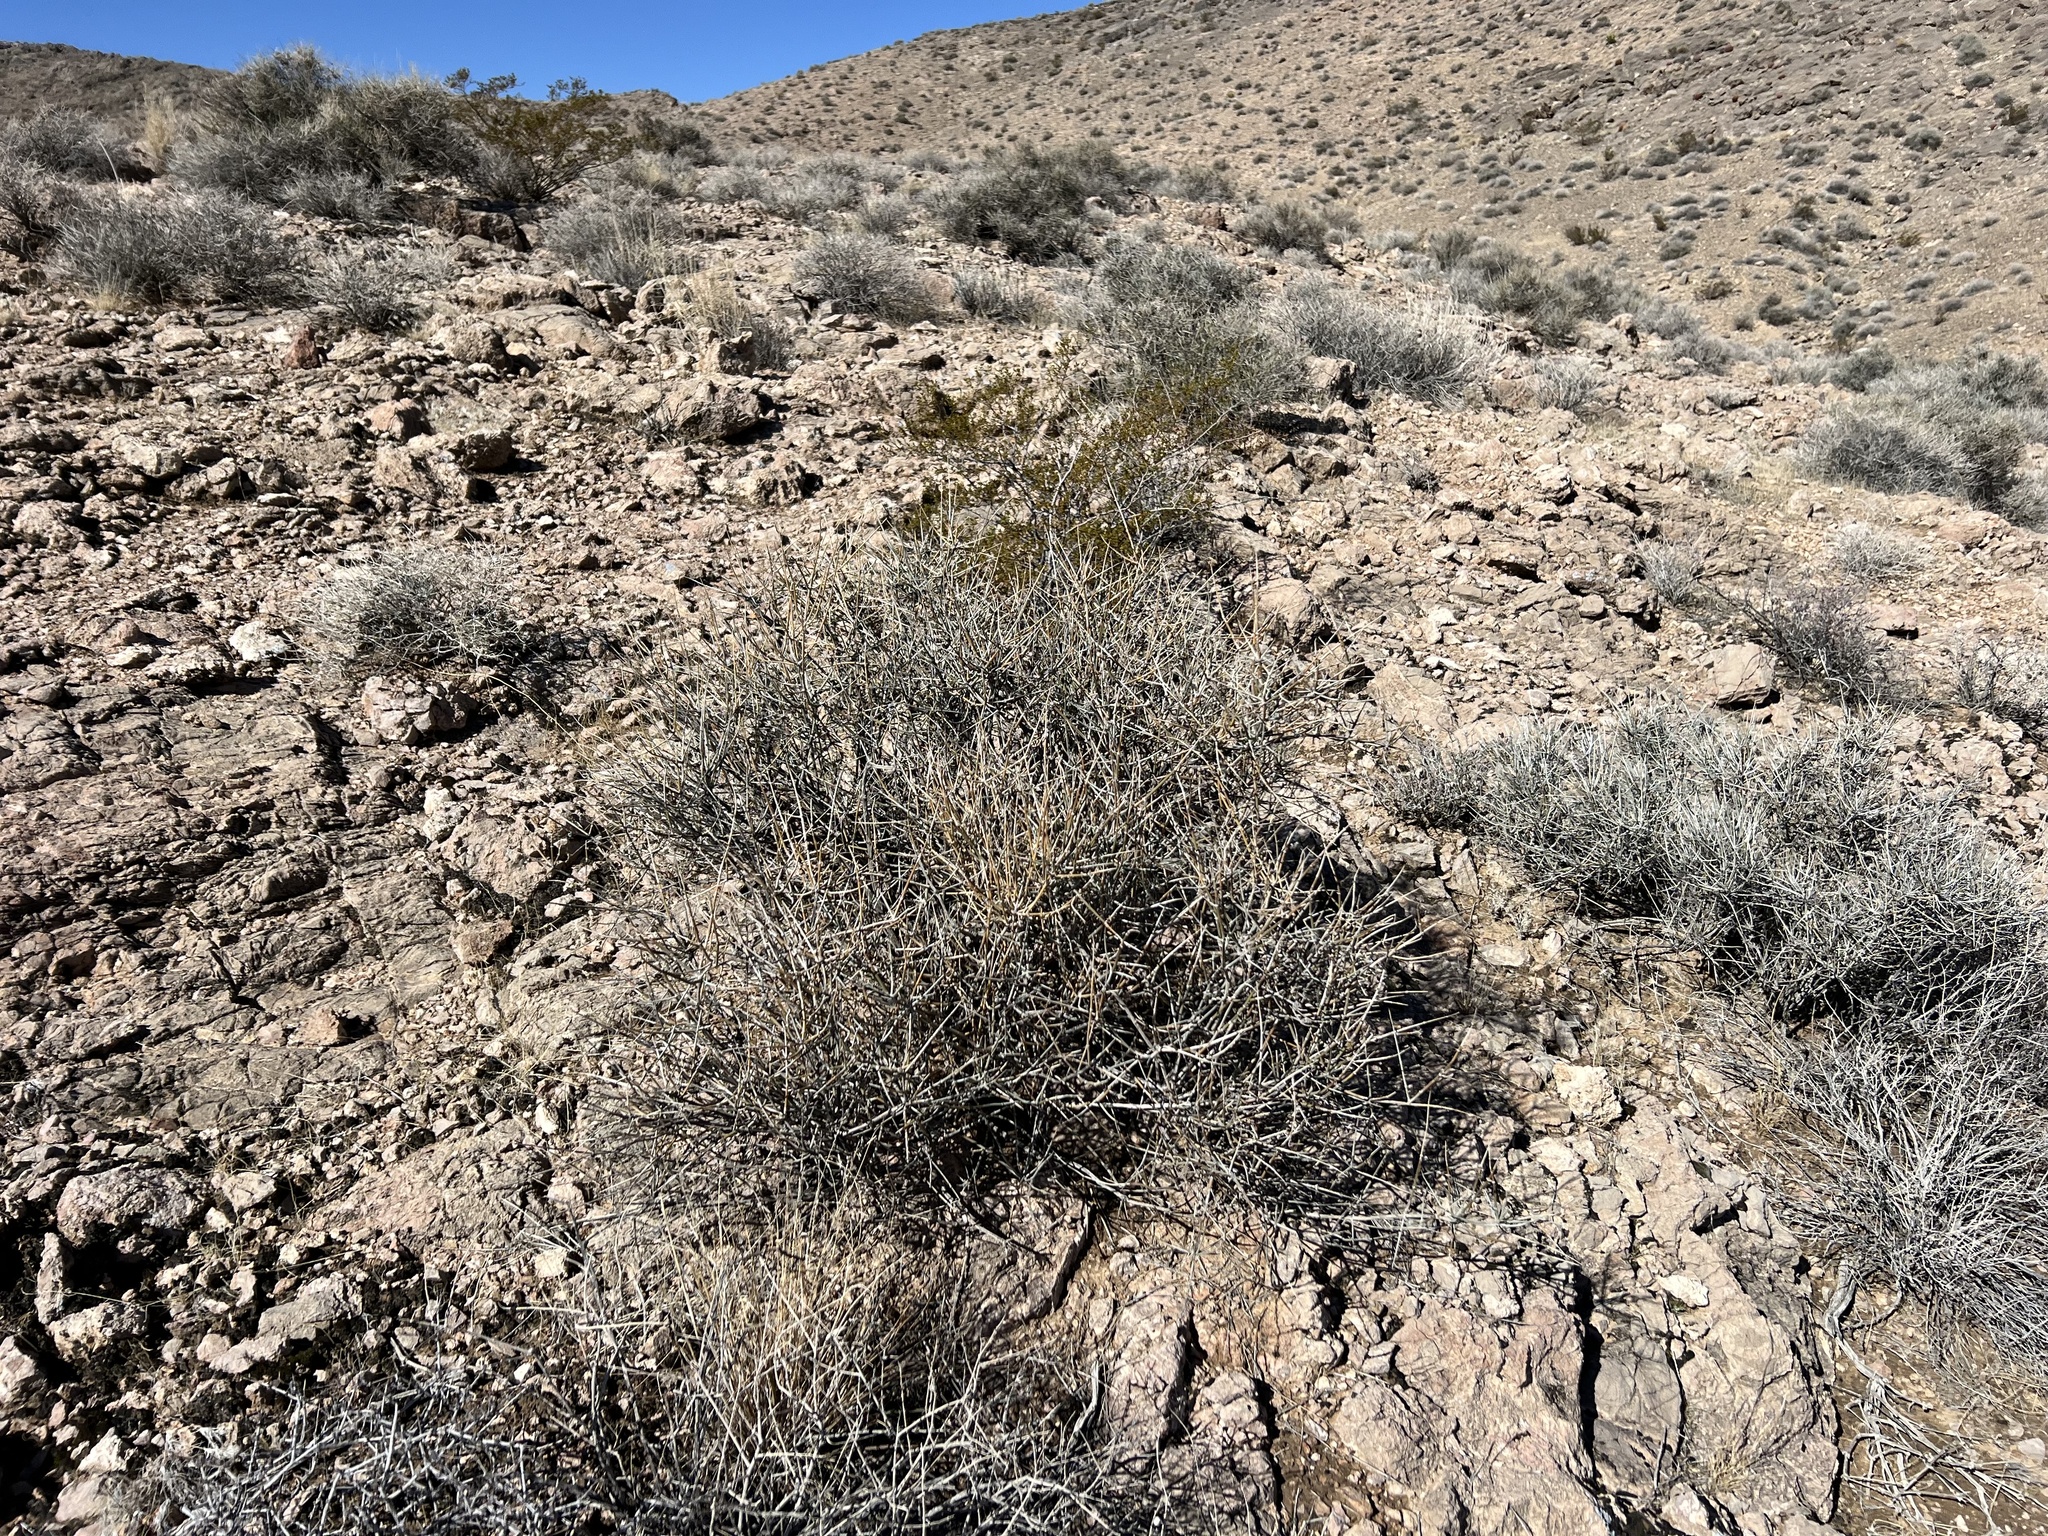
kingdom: Plantae
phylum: Tracheophyta
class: Gnetopsida
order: Ephedrales
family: Ephedraceae
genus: Ephedra
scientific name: Ephedra nevadensis
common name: Gray ephedra
